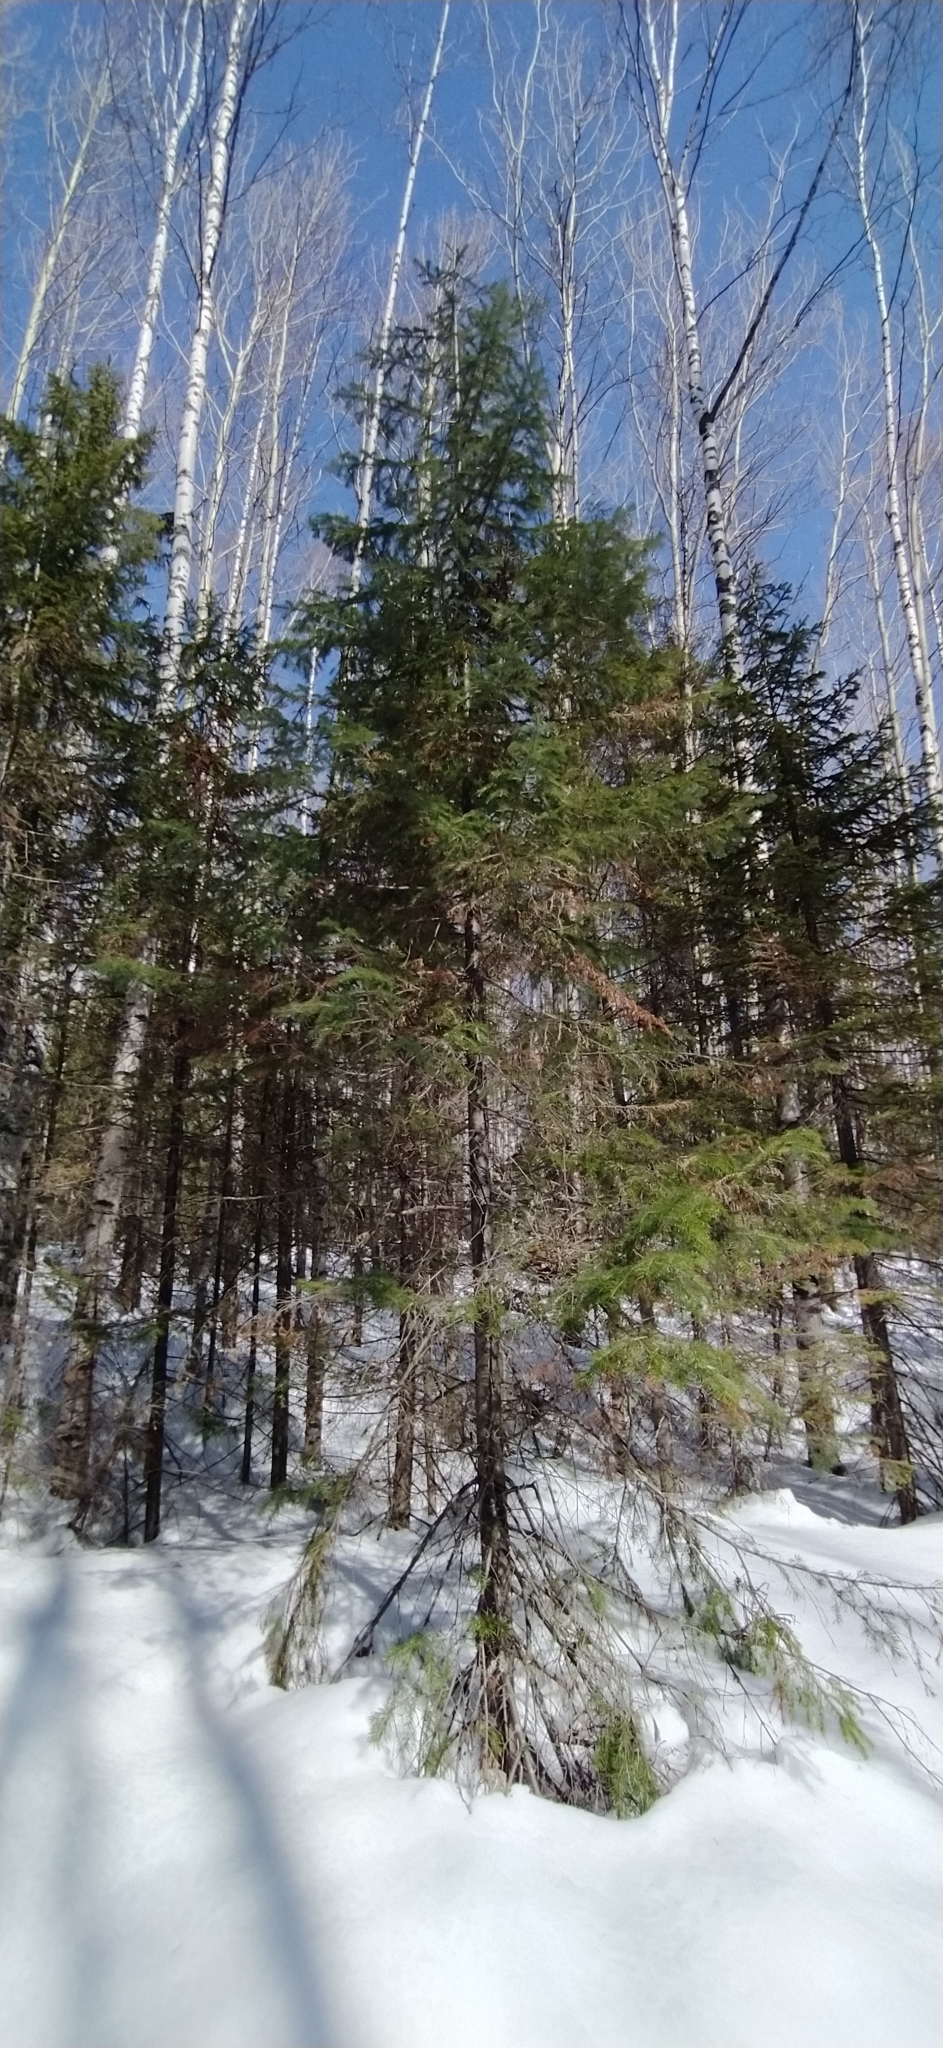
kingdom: Plantae
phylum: Tracheophyta
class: Pinopsida
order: Pinales
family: Pinaceae
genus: Abies
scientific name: Abies sibirica
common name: Siberian fir
